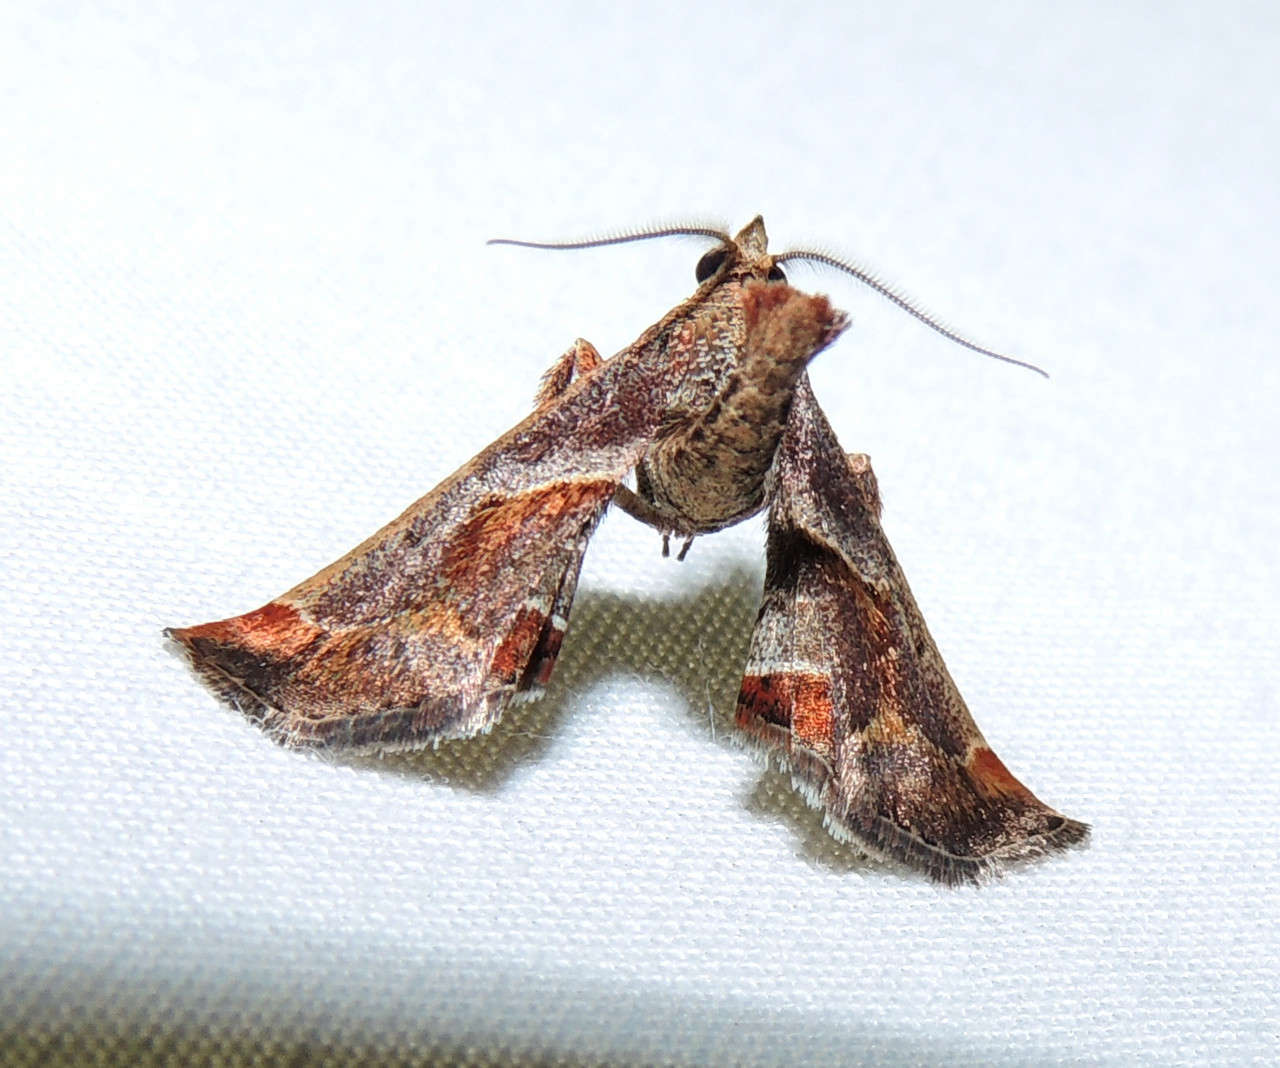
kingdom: Animalia
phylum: Arthropoda
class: Insecta
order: Lepidoptera
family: Pyralidae
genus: Gauna
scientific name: Gauna aegusalis
